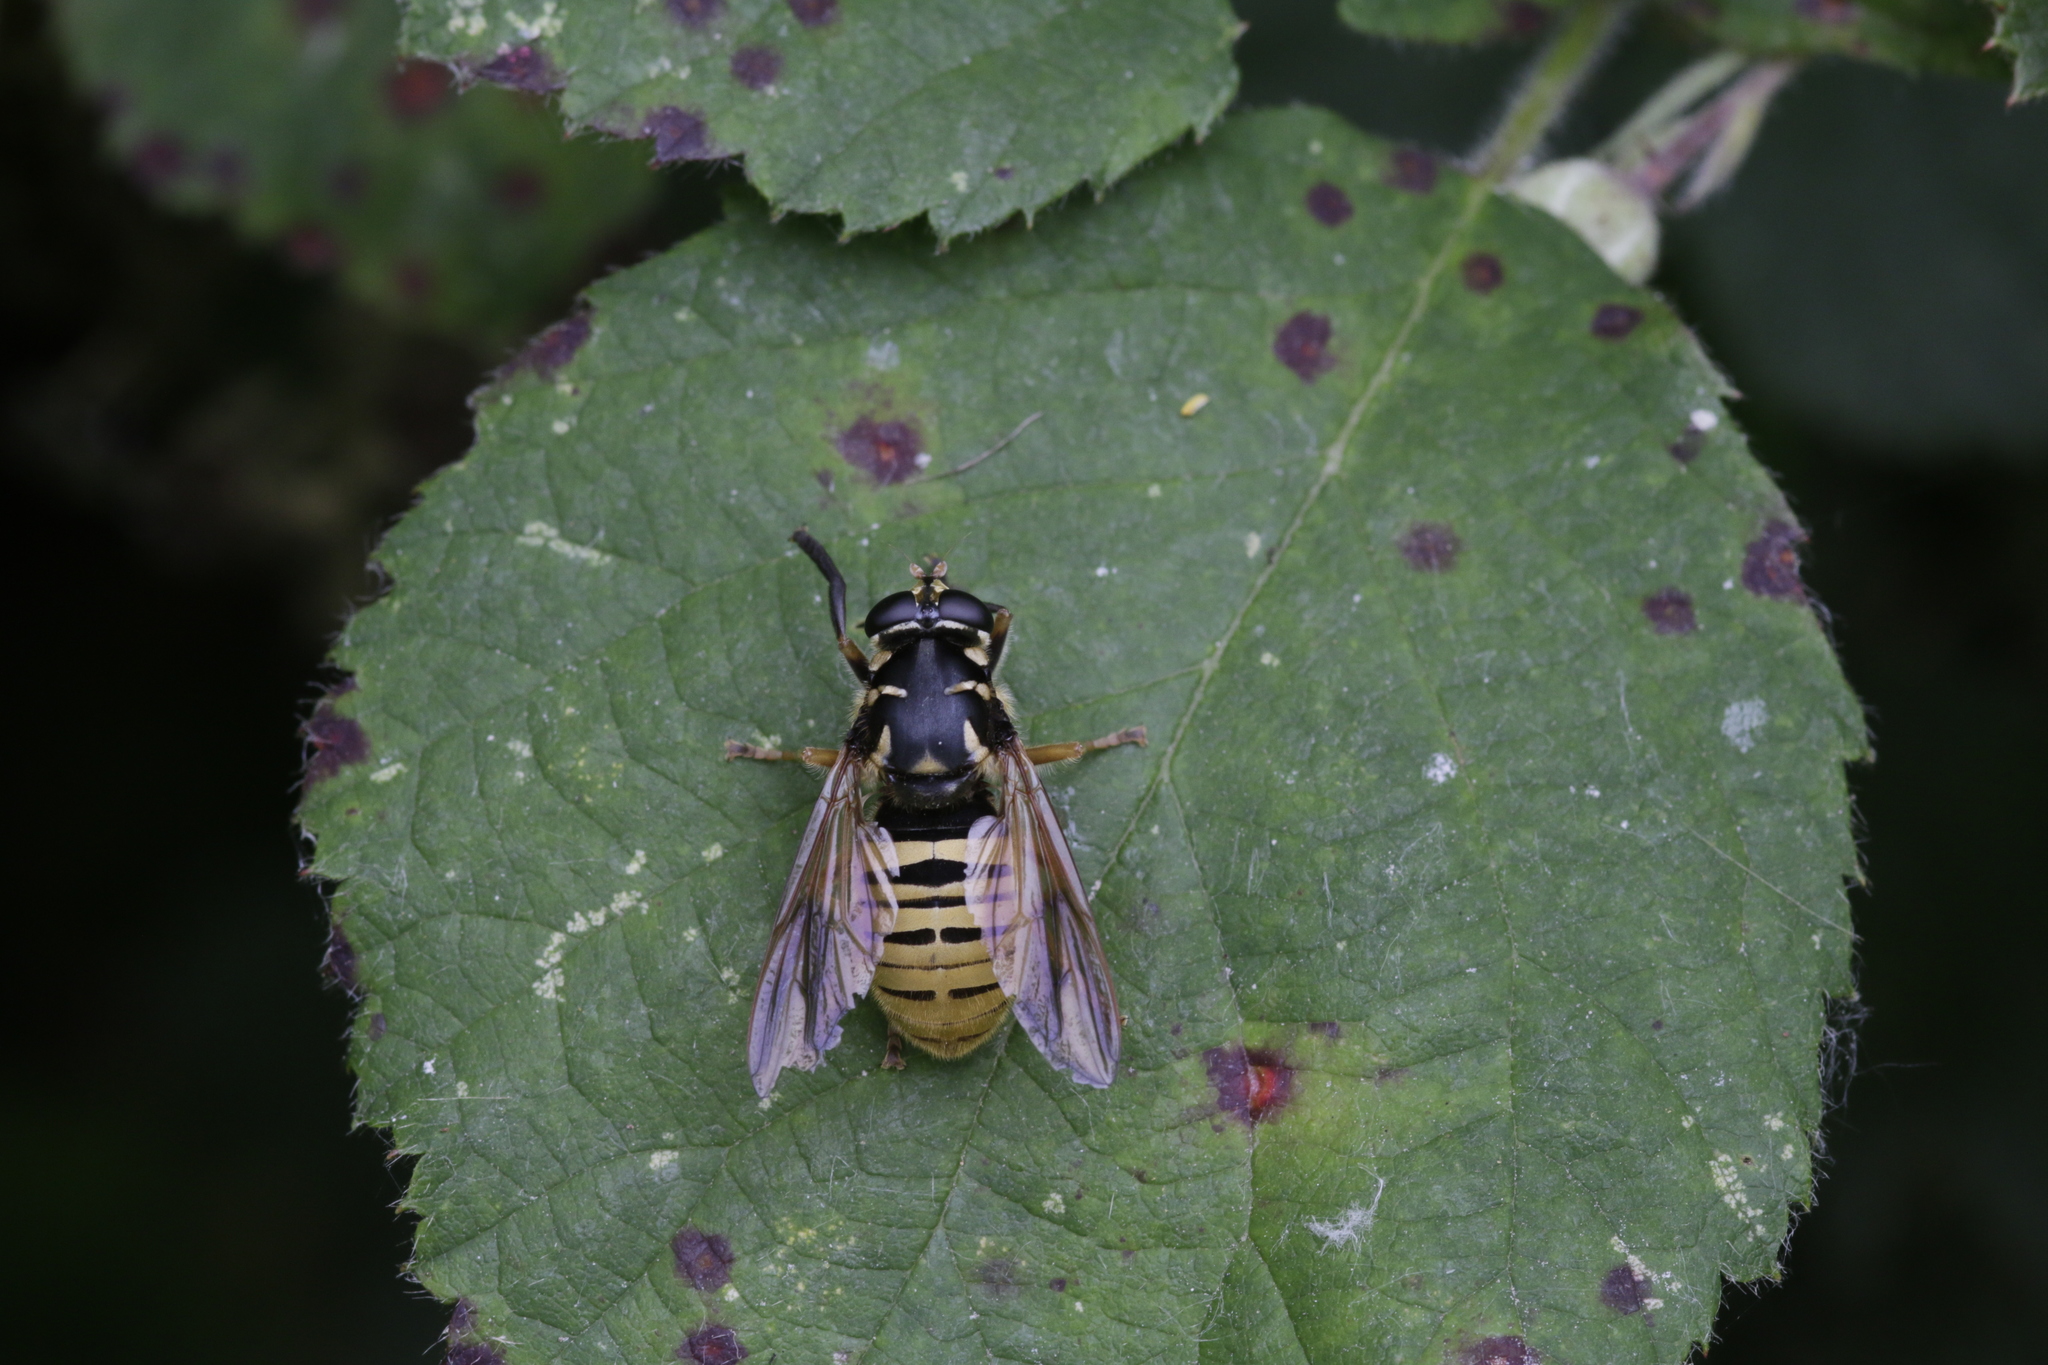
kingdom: Animalia
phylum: Arthropoda
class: Insecta
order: Diptera
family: Syrphidae
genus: Temnostoma
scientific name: Temnostoma vespiforme
